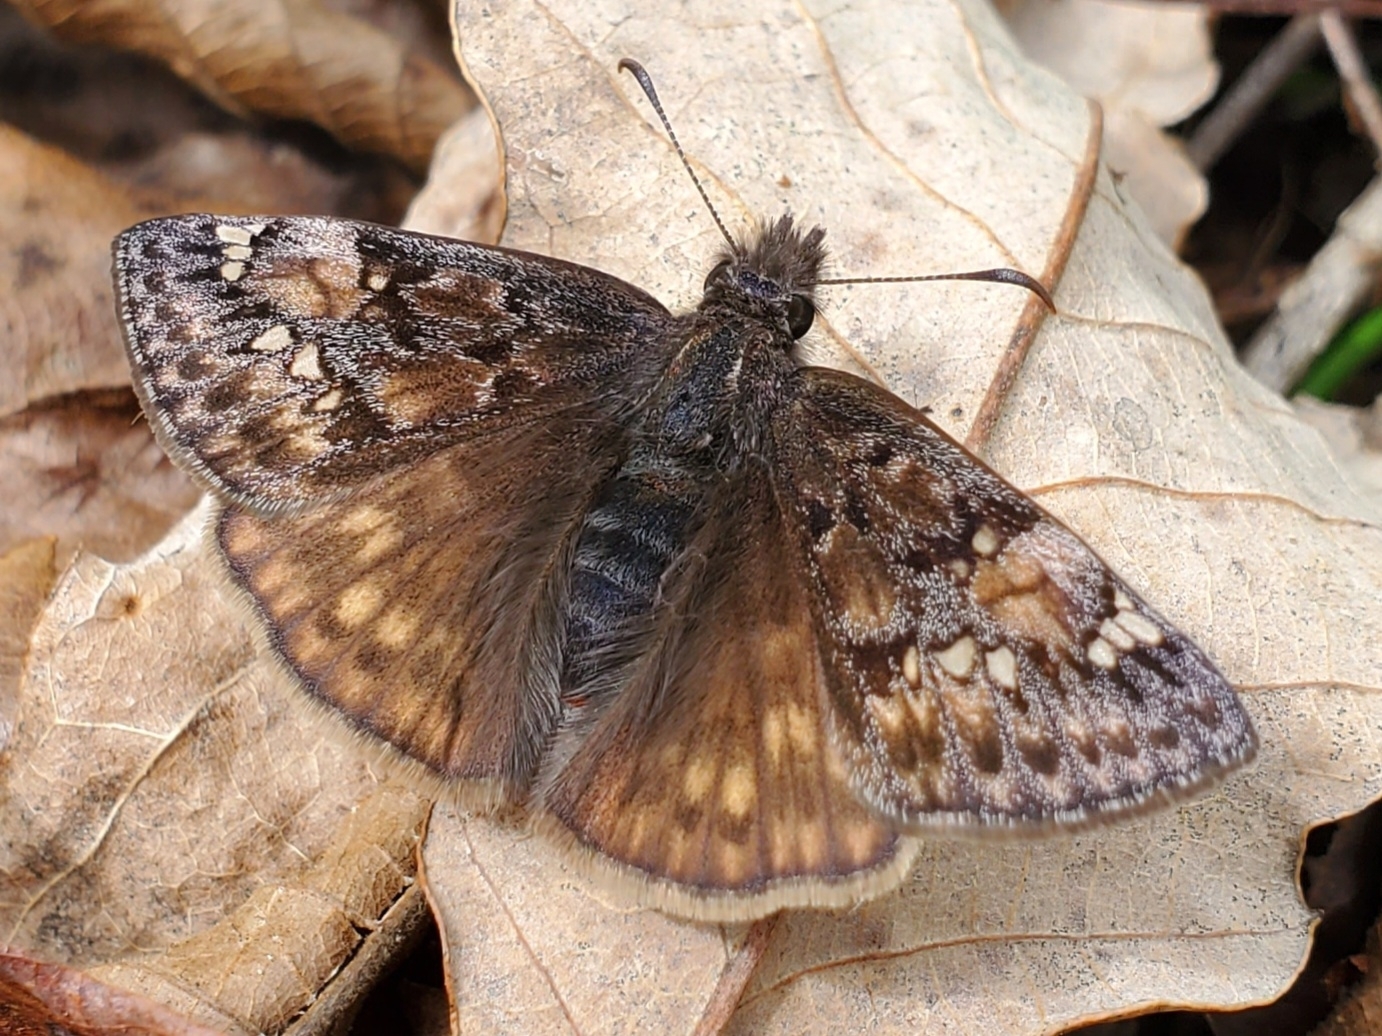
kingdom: Animalia
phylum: Arthropoda
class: Insecta
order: Lepidoptera
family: Hesperiidae
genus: Erynnis
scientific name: Erynnis juvenalis
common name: Juvenal's duskywing
